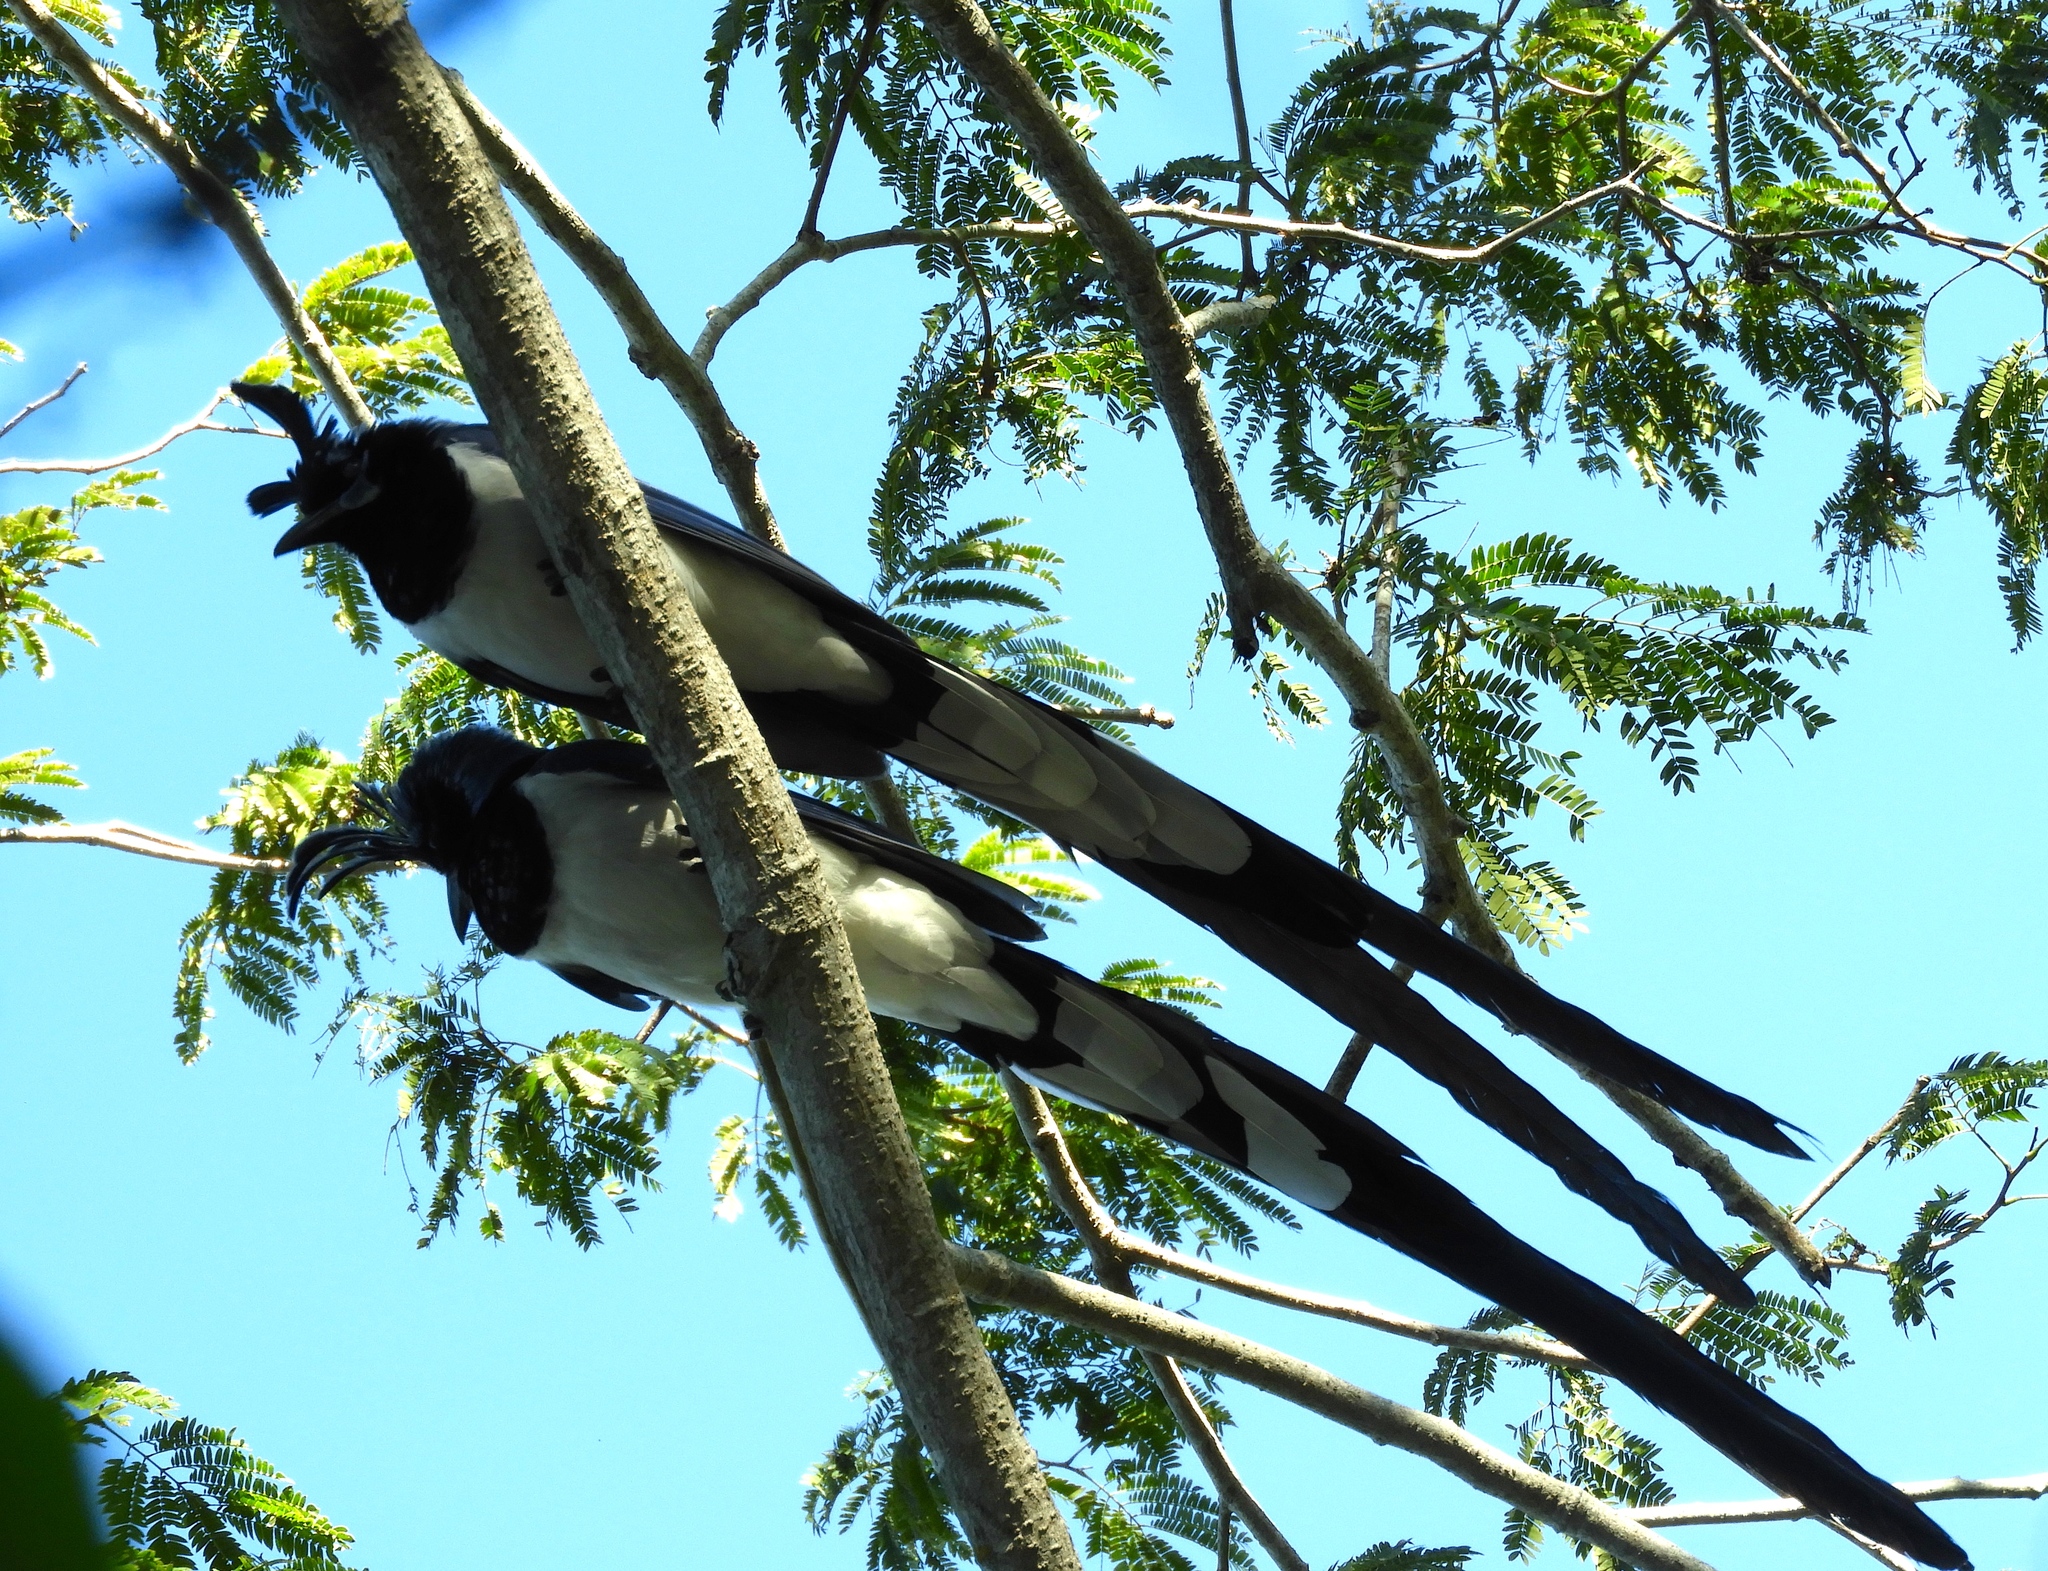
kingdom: Animalia
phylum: Chordata
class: Aves
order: Passeriformes
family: Corvidae
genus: Calocitta
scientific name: Calocitta colliei
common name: Black-throated magpie-jay
